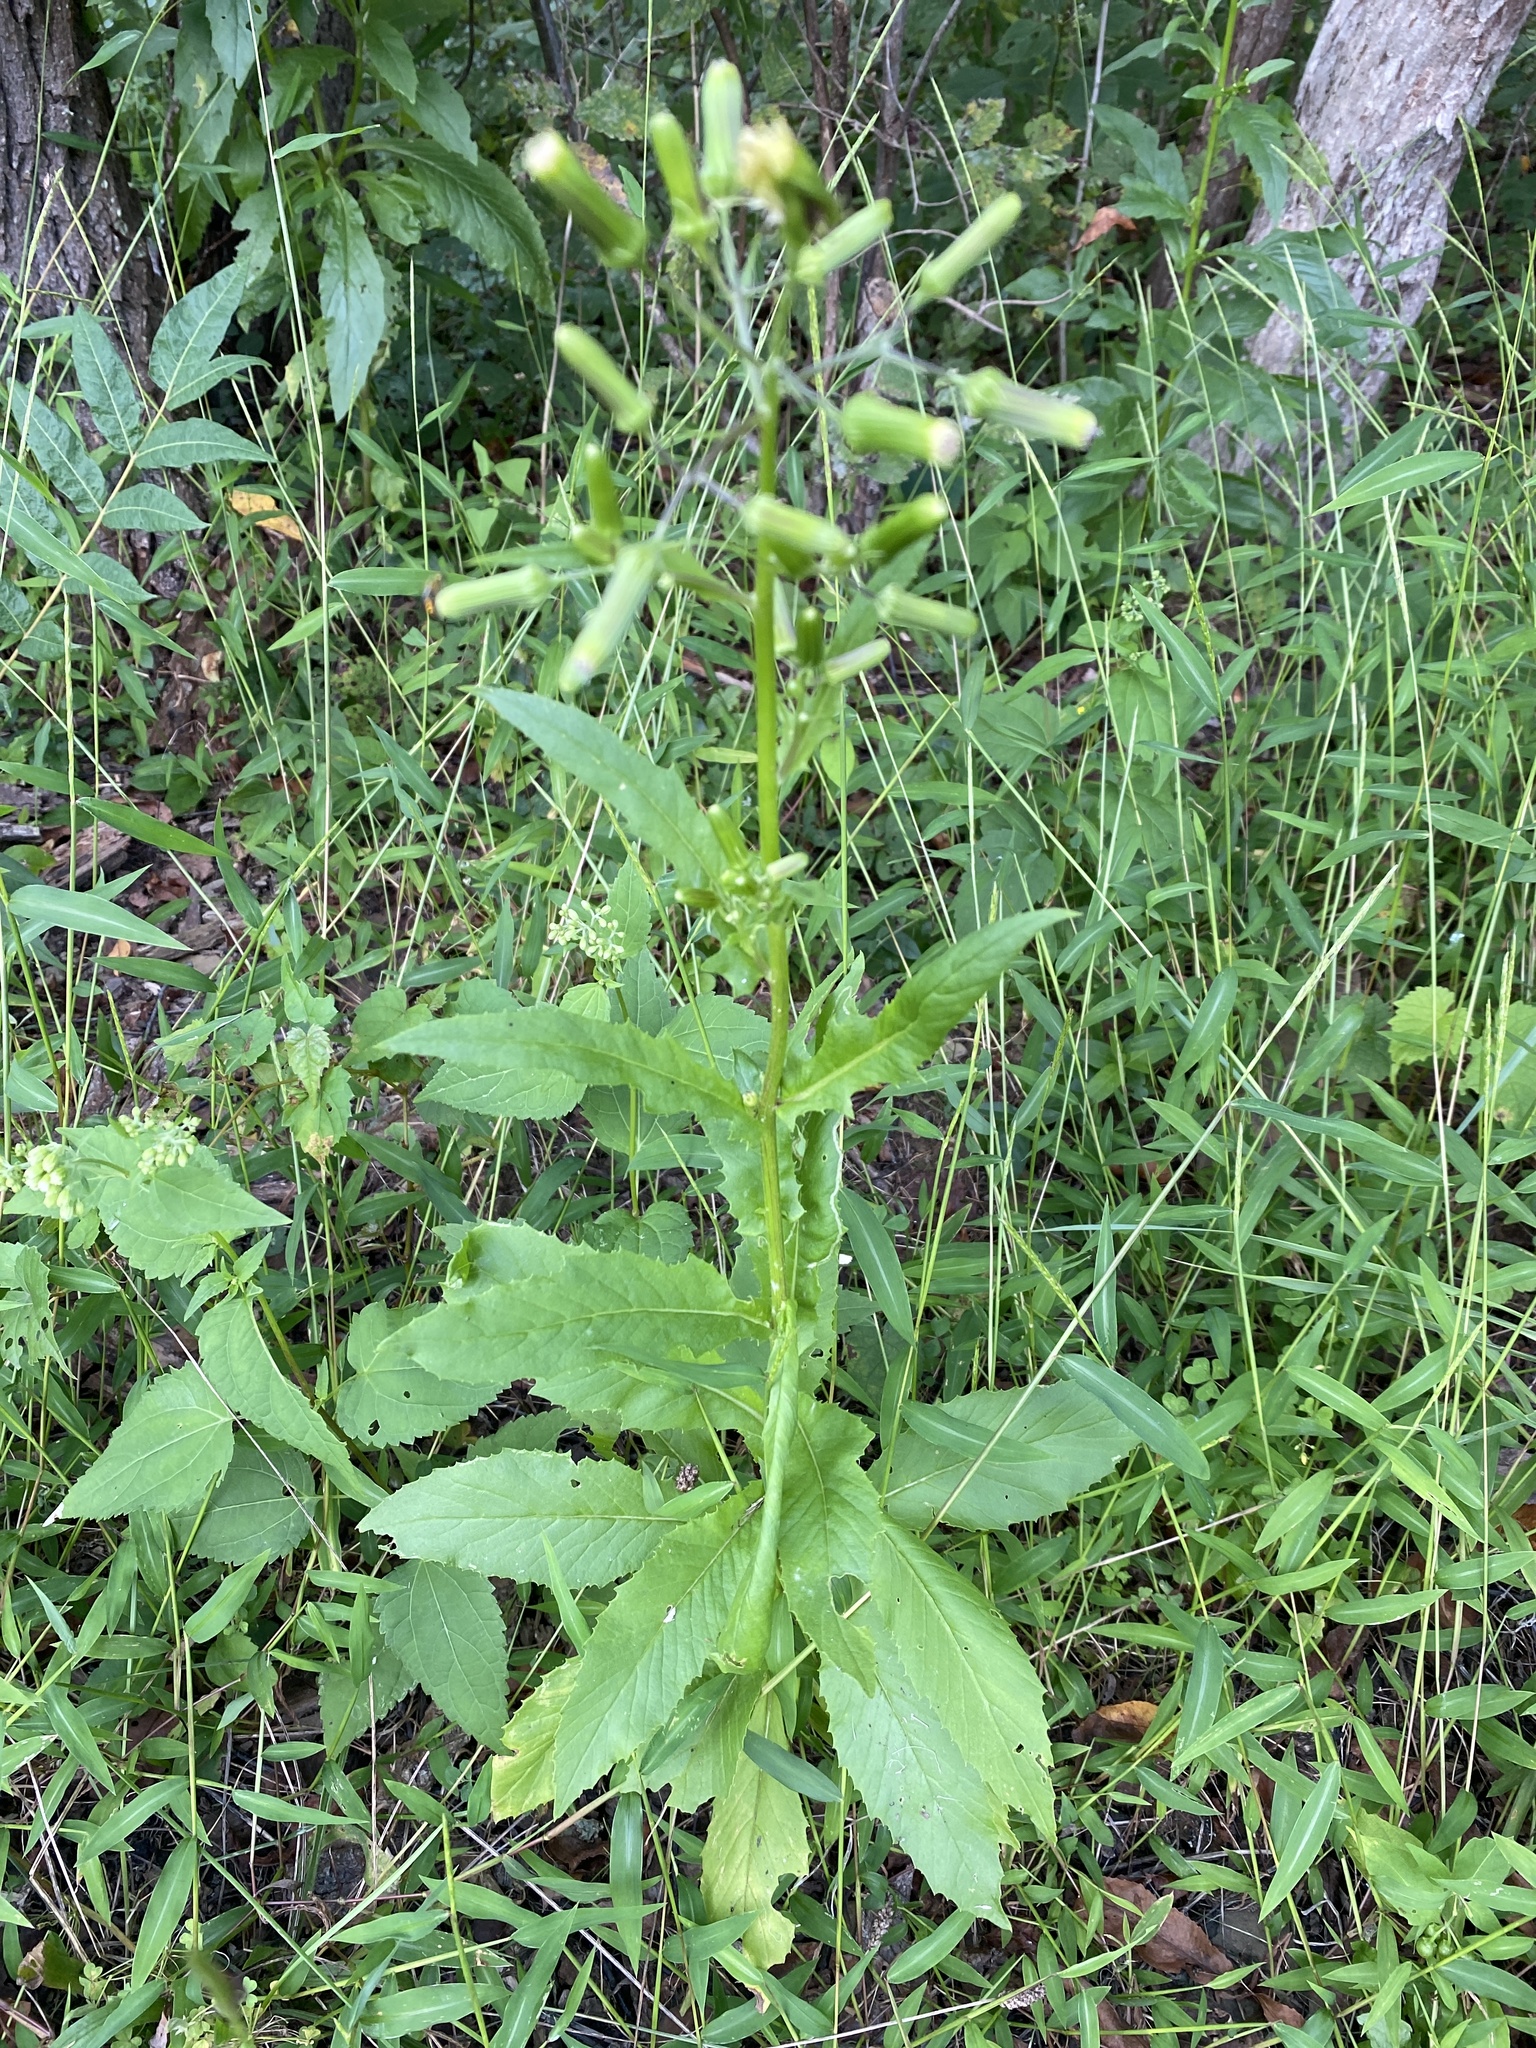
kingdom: Plantae
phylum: Tracheophyta
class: Magnoliopsida
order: Asterales
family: Asteraceae
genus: Erechtites
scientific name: Erechtites hieraciifolius
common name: American burnweed
